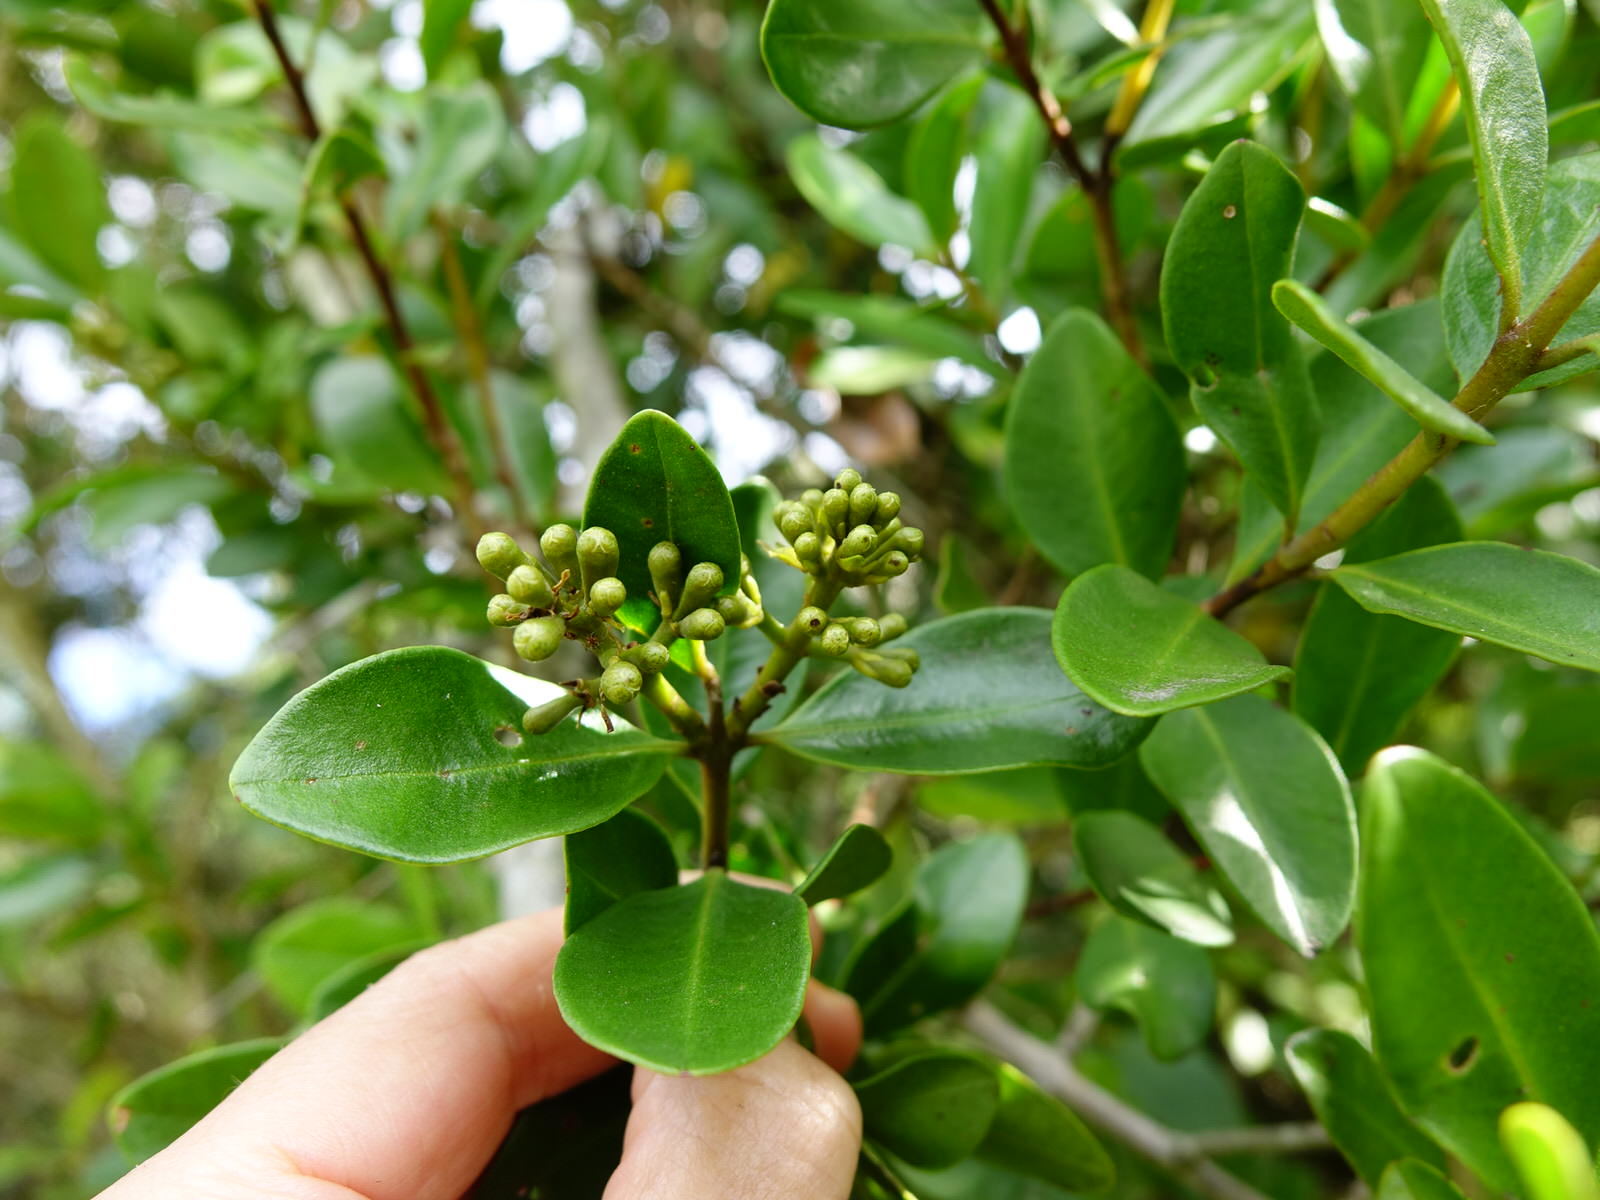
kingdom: Plantae
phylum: Tracheophyta
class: Magnoliopsida
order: Myrtales
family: Myrtaceae
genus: Metrosideros
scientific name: Metrosideros fulgens
